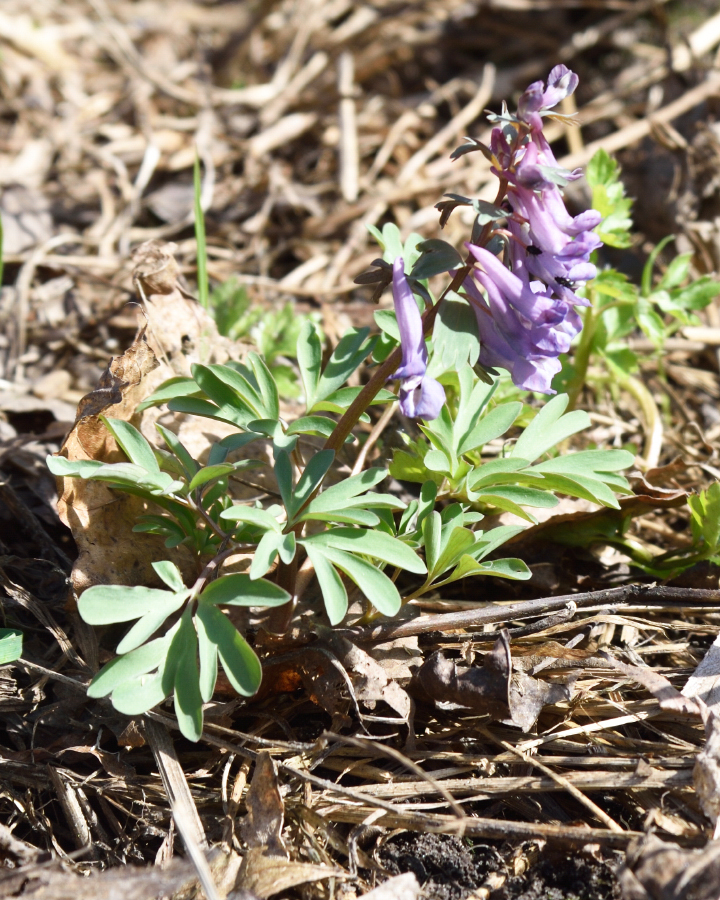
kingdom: Plantae
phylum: Tracheophyta
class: Magnoliopsida
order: Ranunculales
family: Papaveraceae
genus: Corydalis
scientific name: Corydalis solida
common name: Bird-in-a-bush
